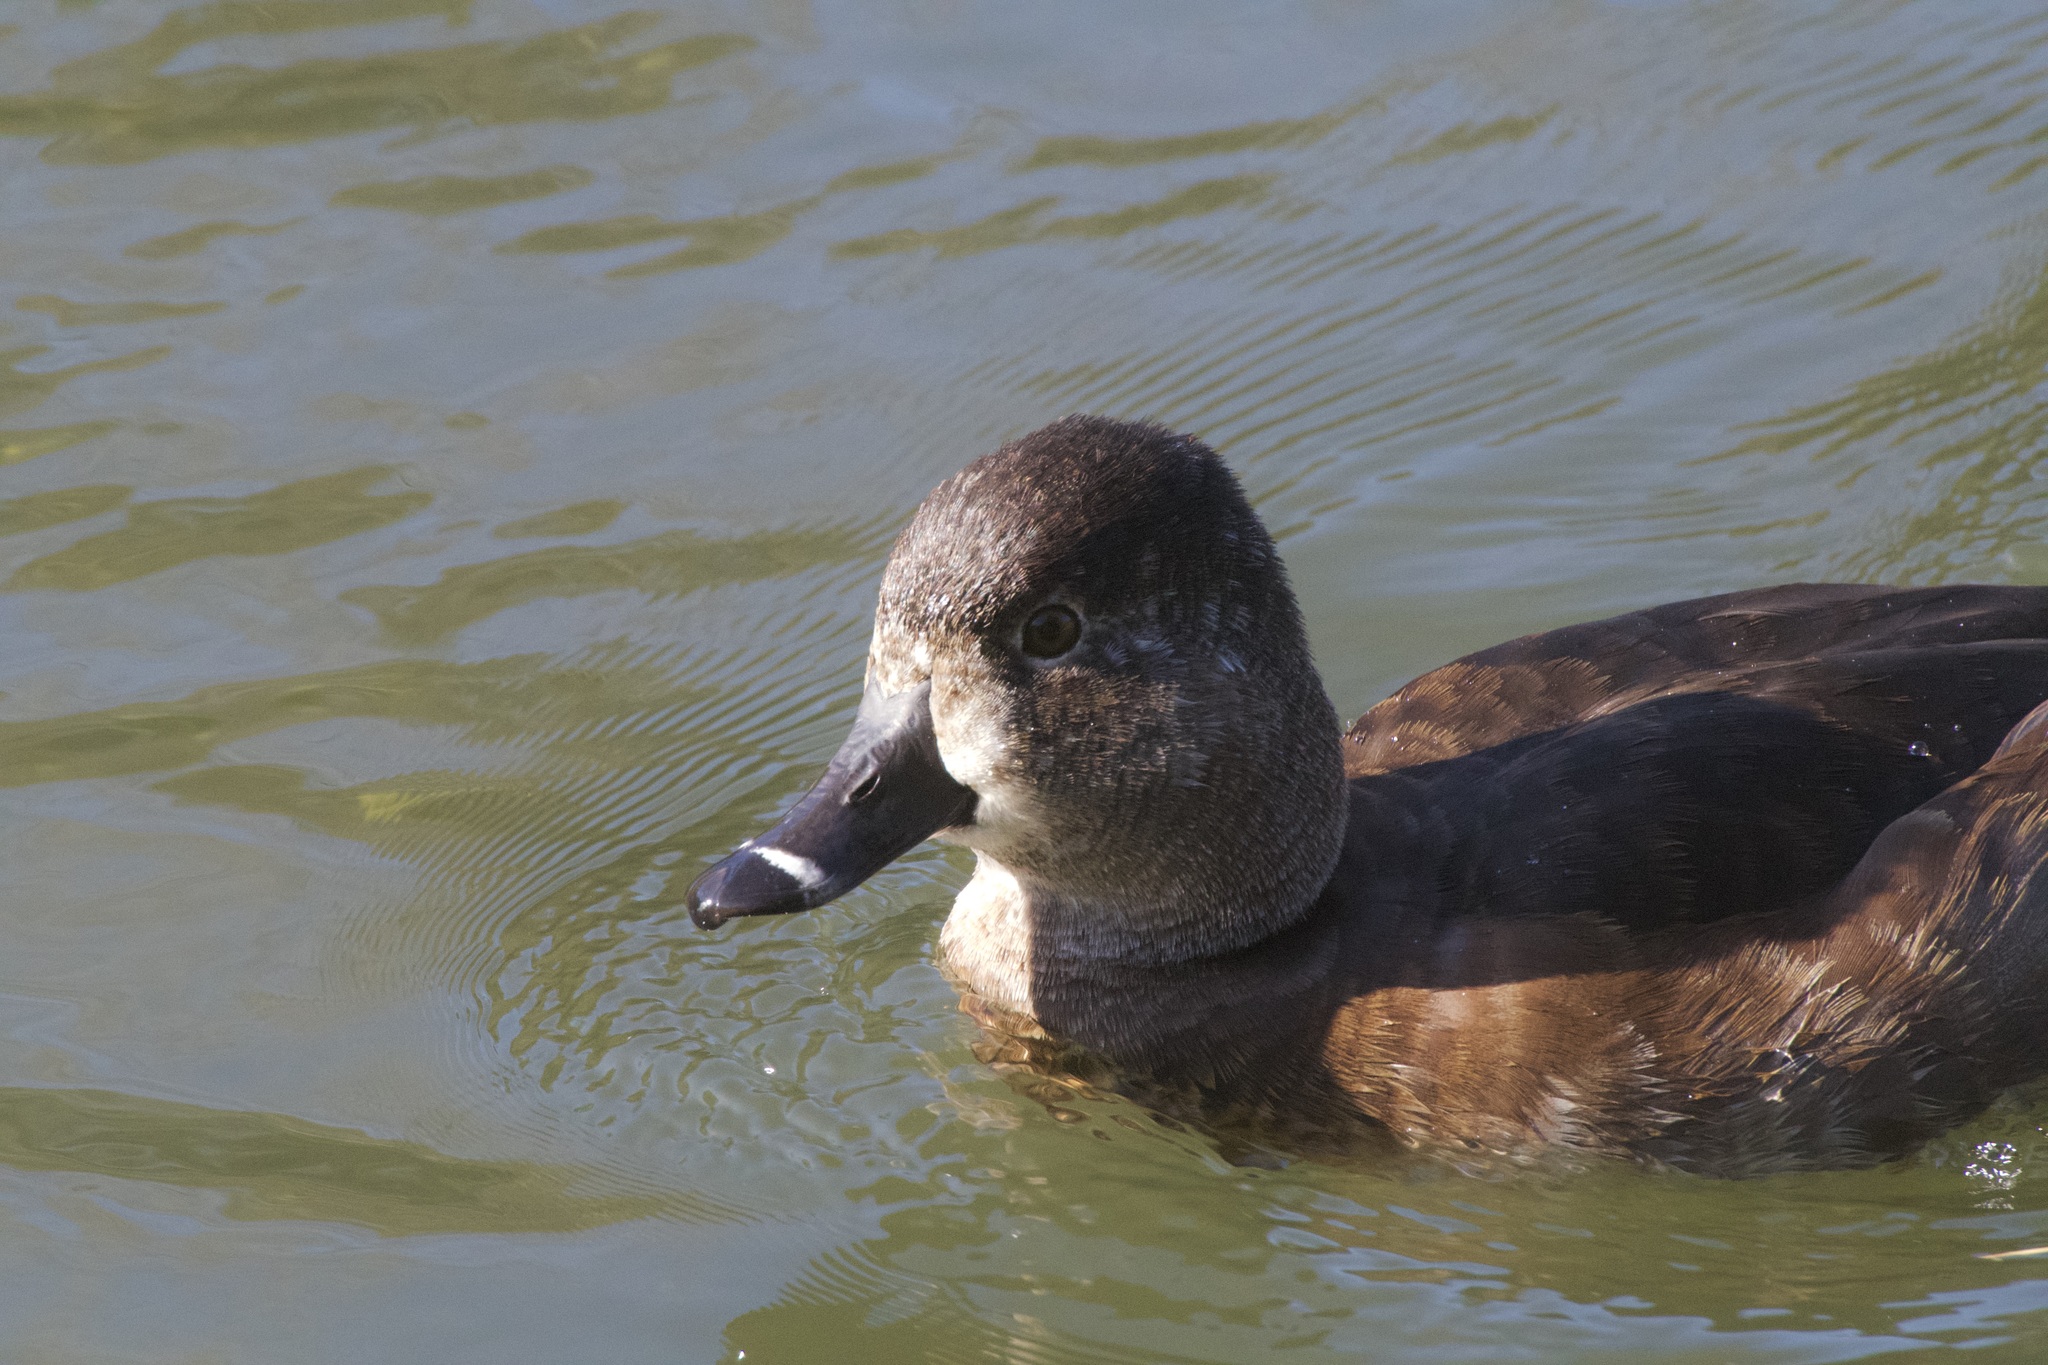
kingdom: Animalia
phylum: Chordata
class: Aves
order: Anseriformes
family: Anatidae
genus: Aythya
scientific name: Aythya collaris
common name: Ring-necked duck
